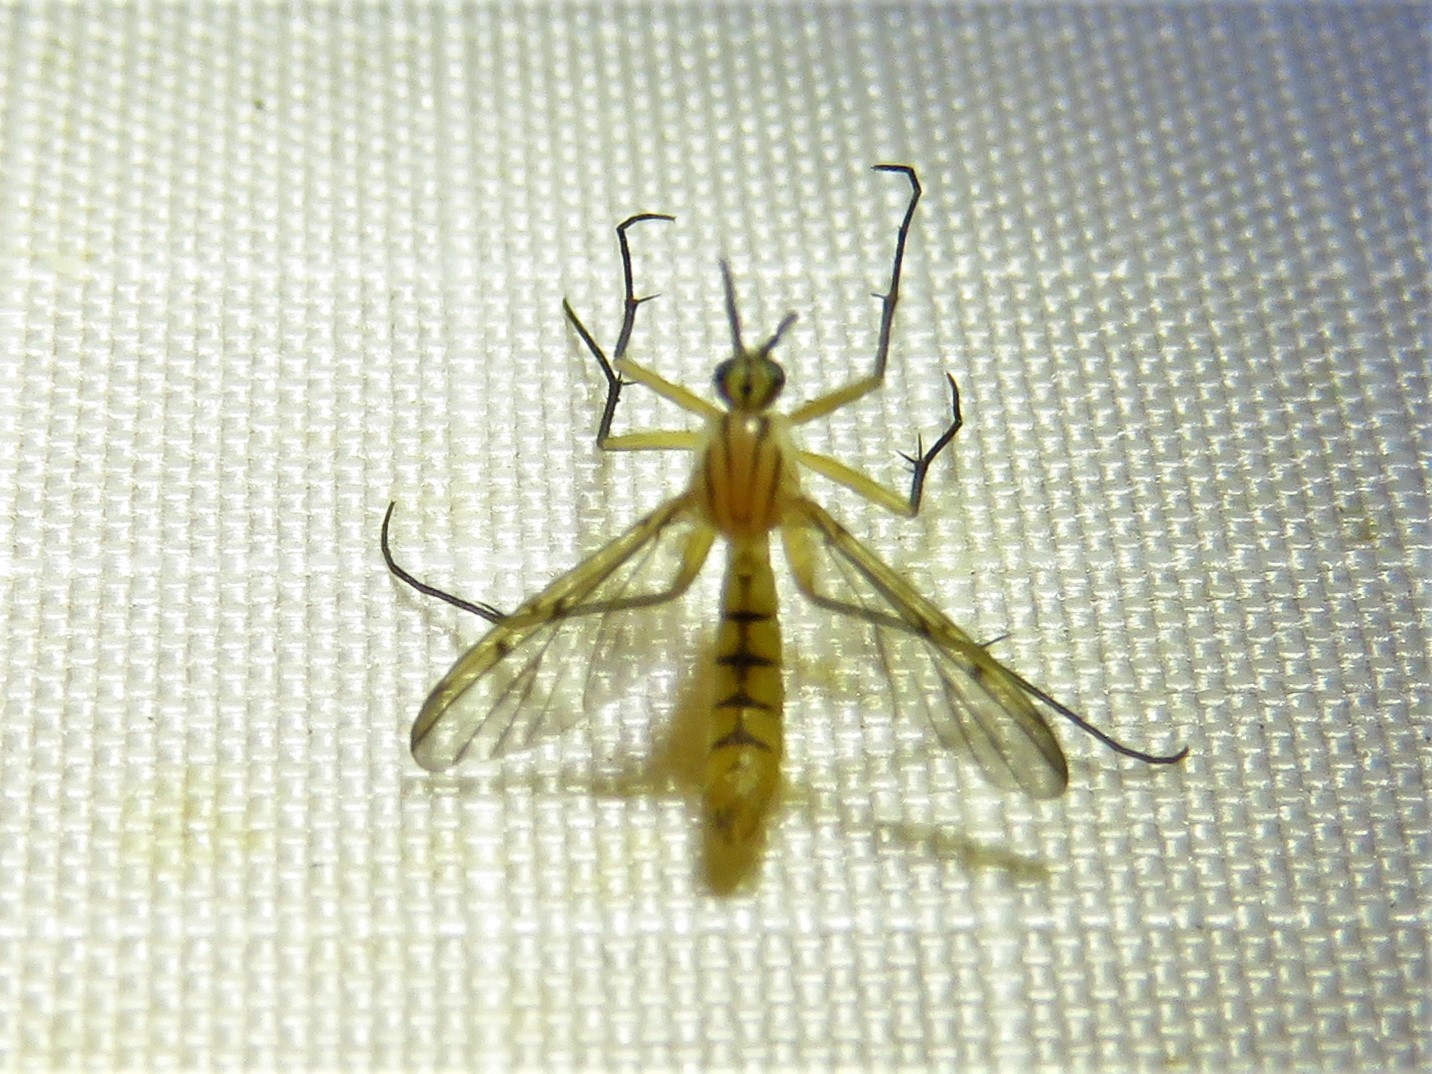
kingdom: Animalia
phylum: Arthropoda
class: Insecta
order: Diptera
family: Mycetophilidae
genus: Neoempheria
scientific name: Neoempheria balioptera
